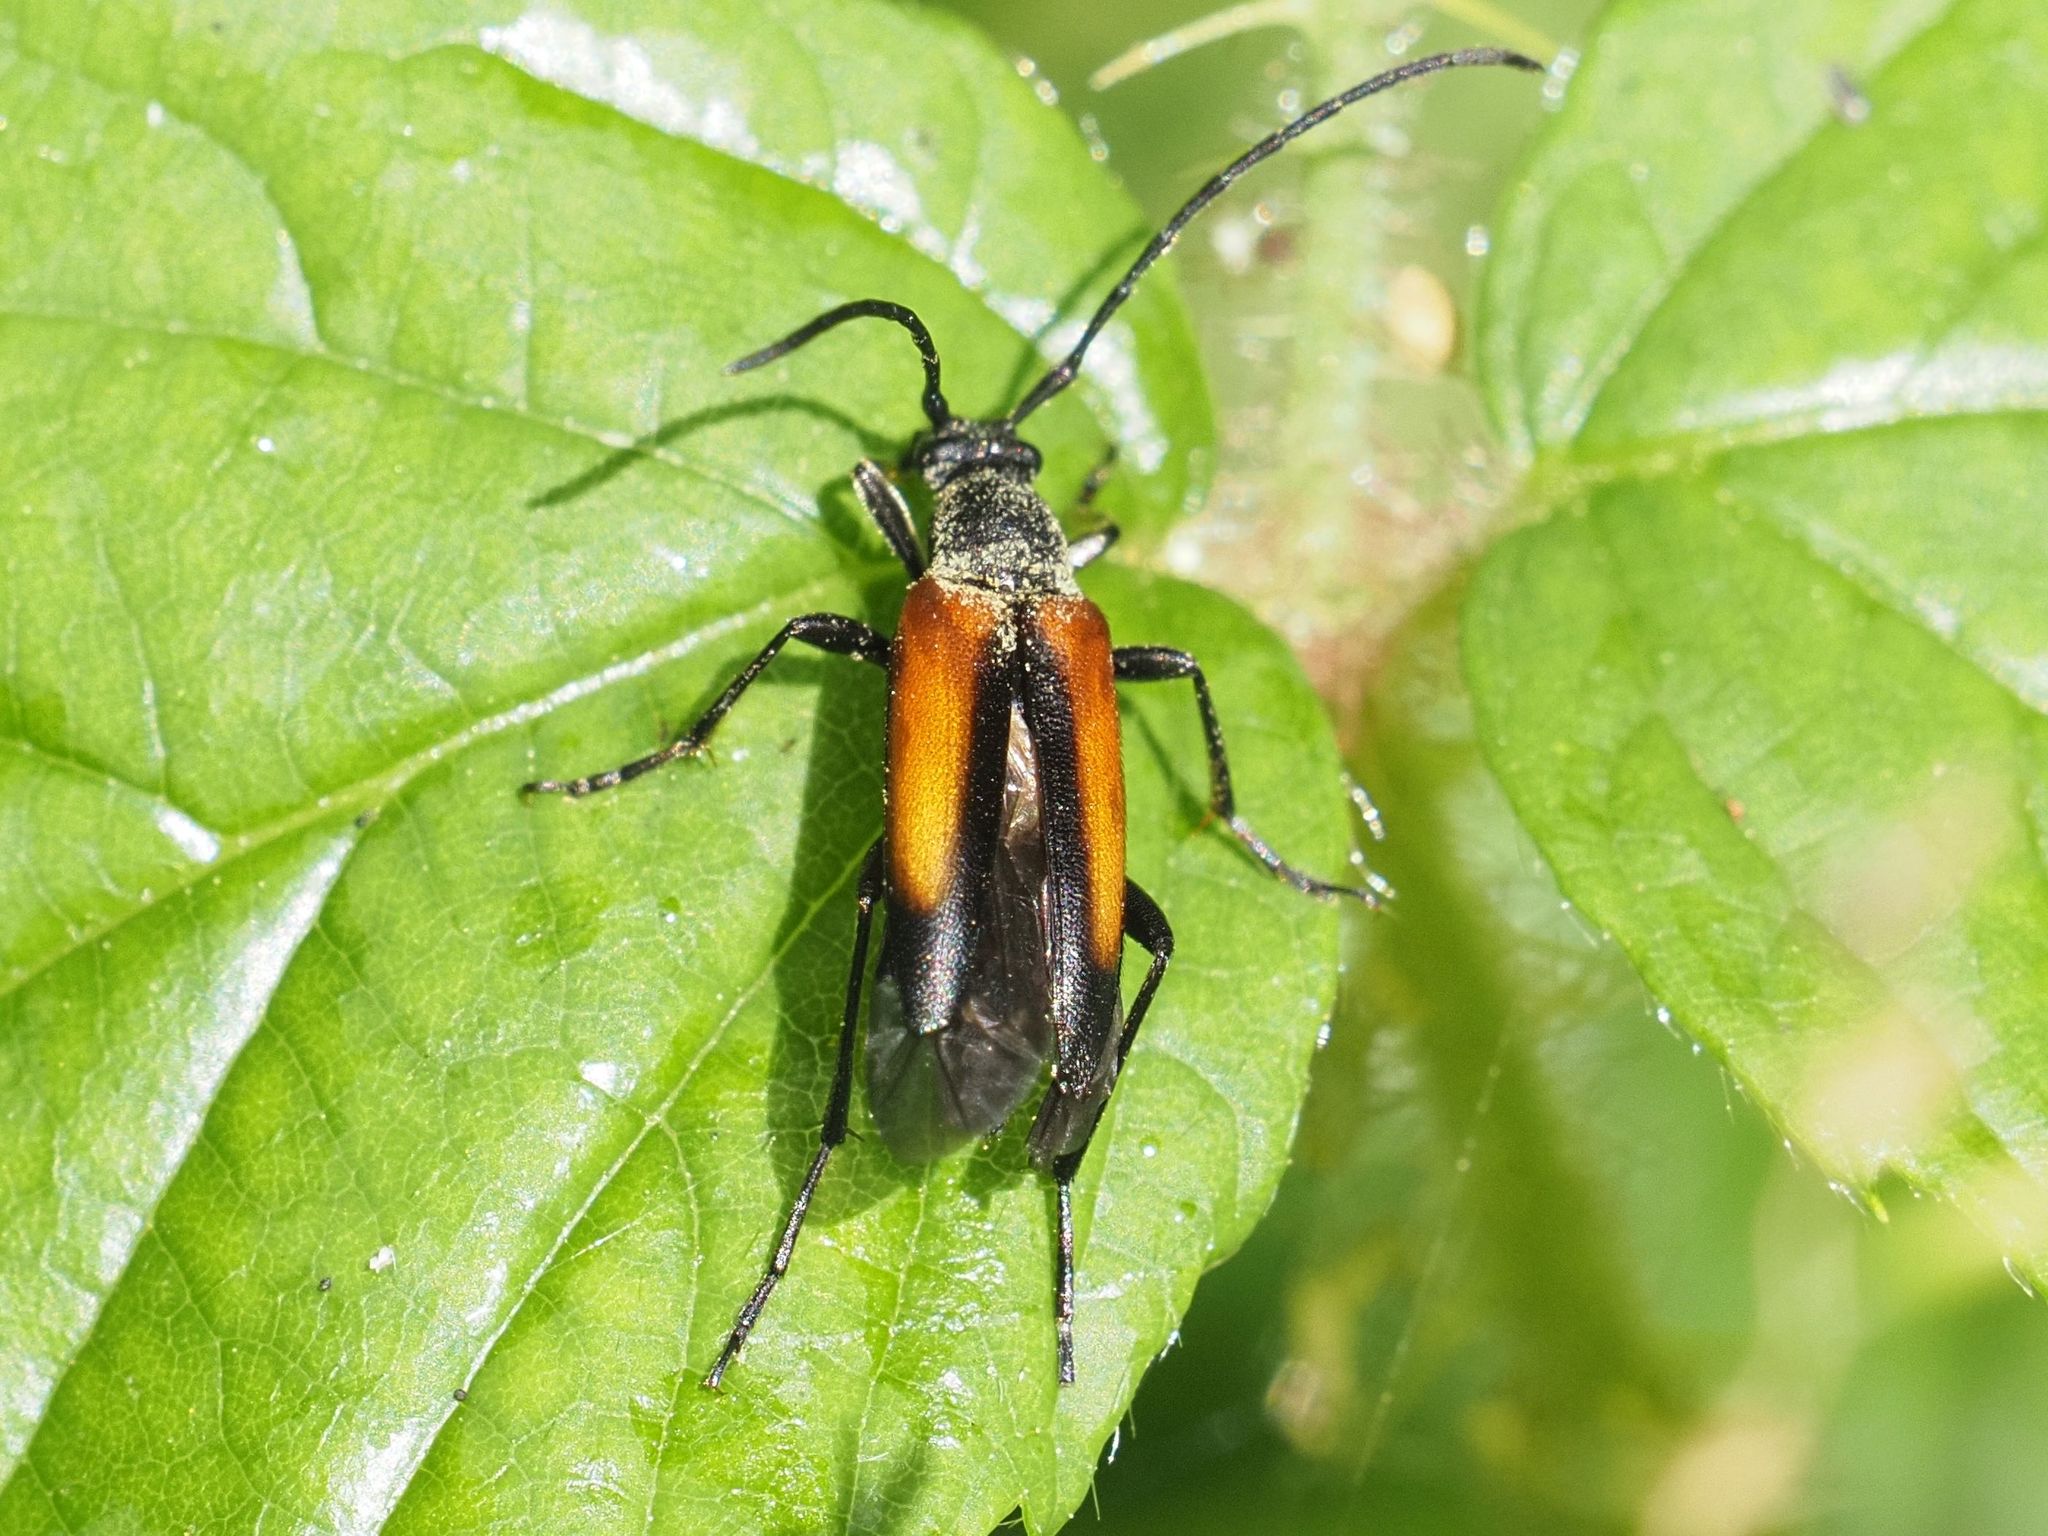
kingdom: Animalia
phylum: Arthropoda
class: Insecta
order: Coleoptera
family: Cerambycidae
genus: Stenurella
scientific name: Stenurella melanura
